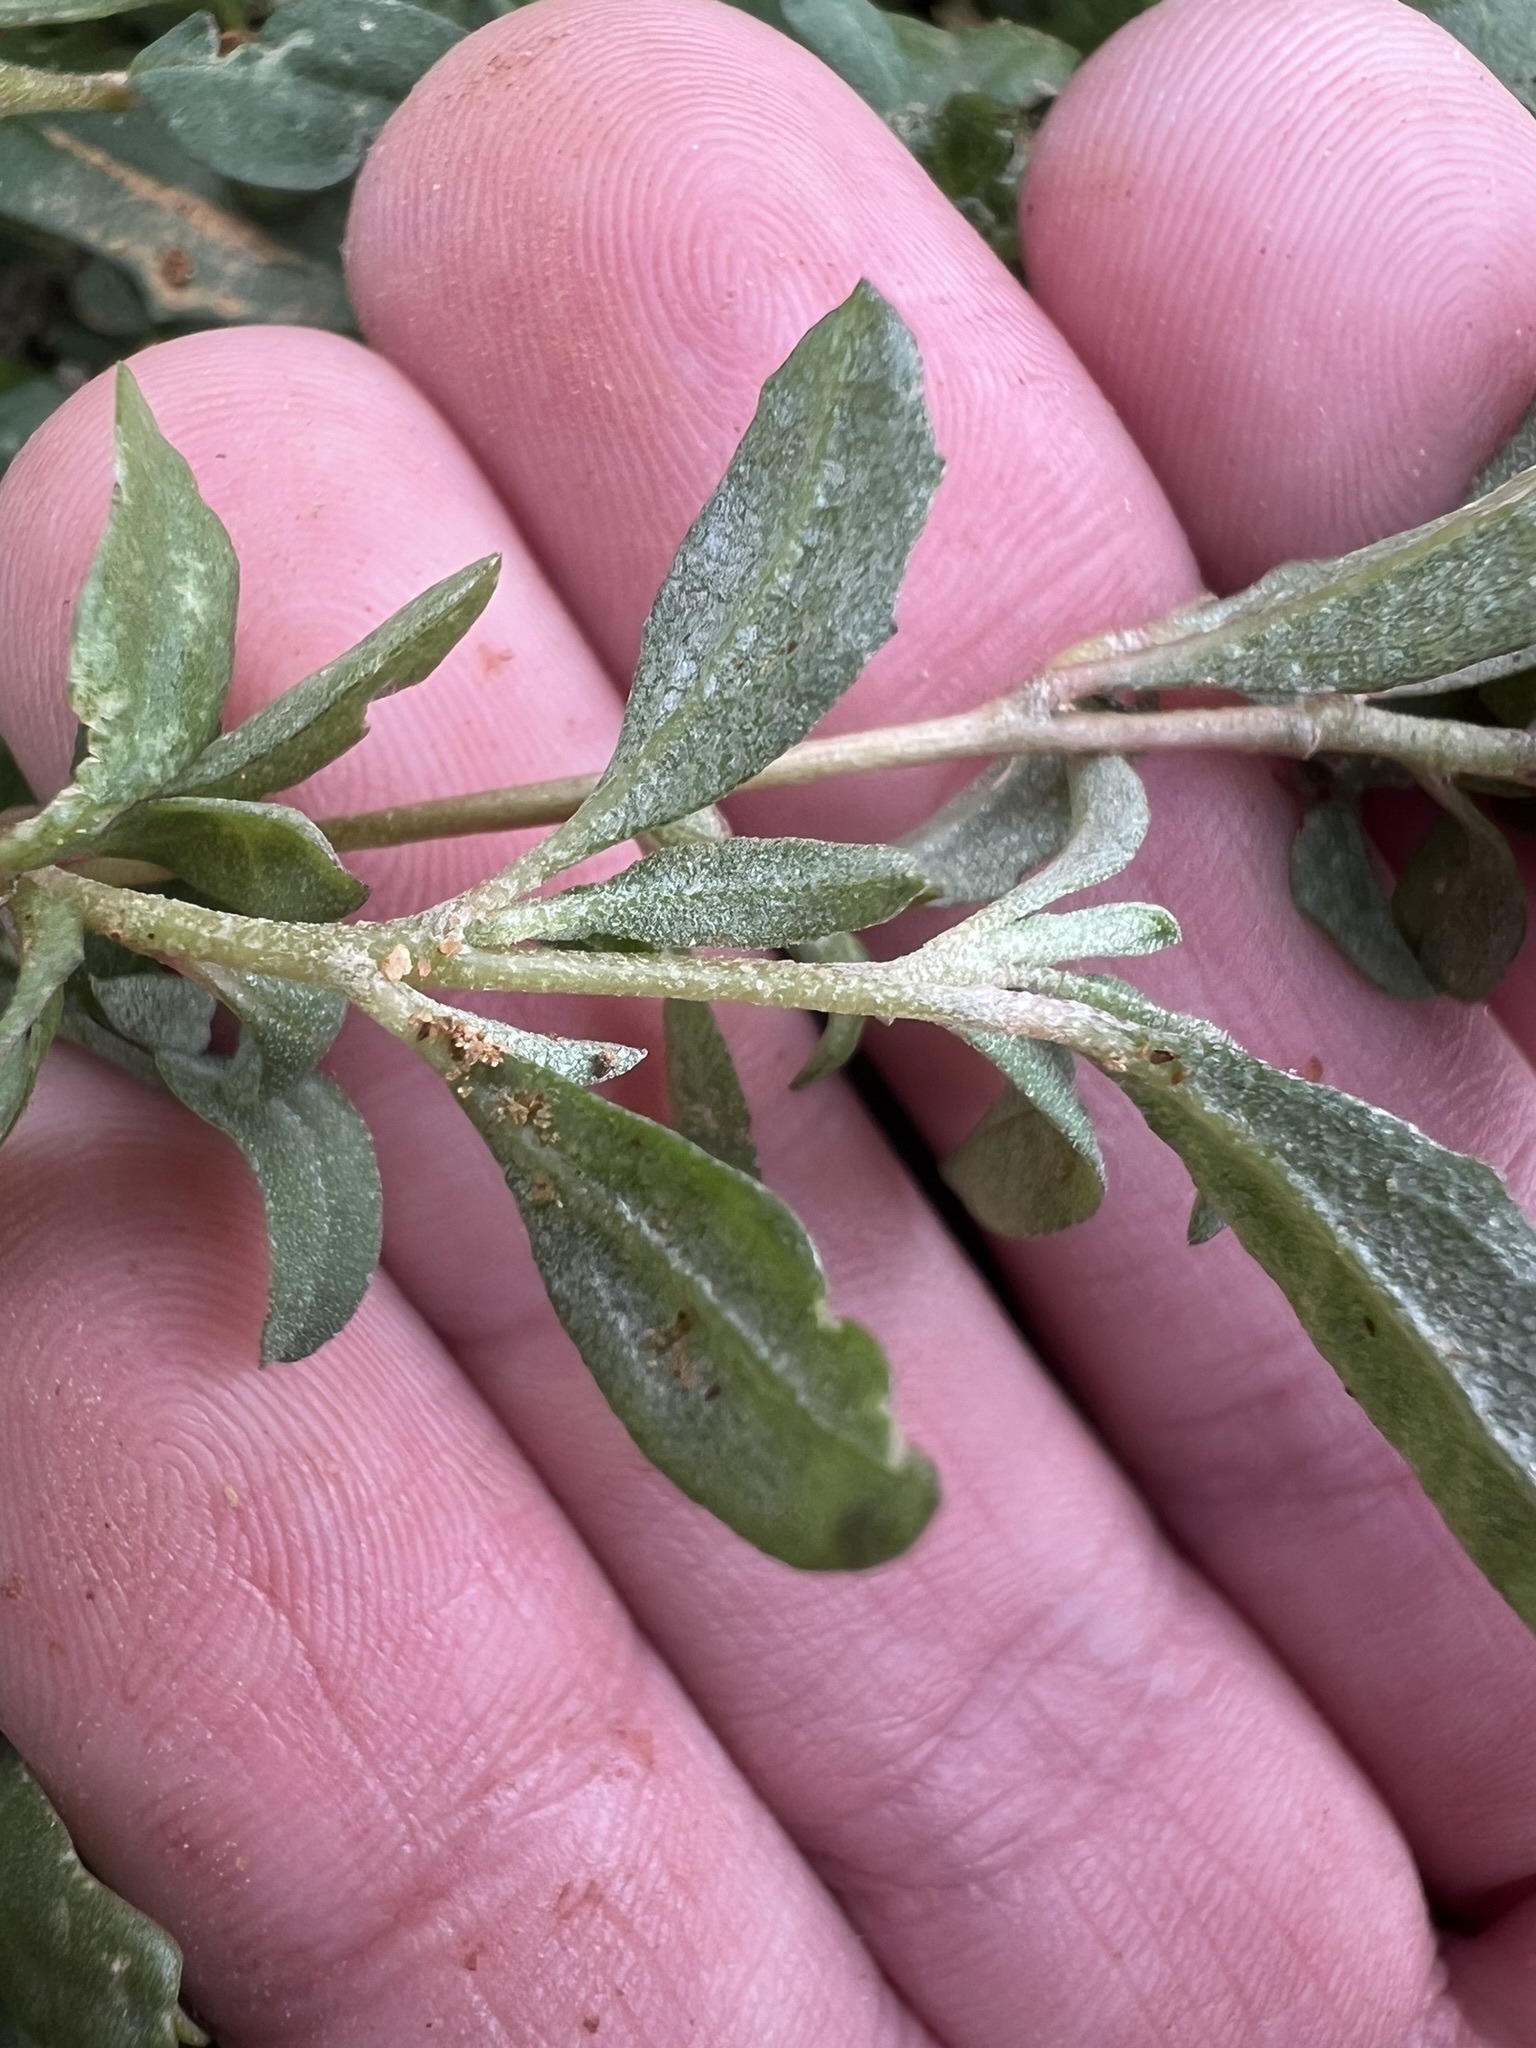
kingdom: Plantae
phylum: Tracheophyta
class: Magnoliopsida
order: Caryophyllales
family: Amaranthaceae
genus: Atriplex
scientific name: Atriplex semibaccata
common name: Australian saltbush
